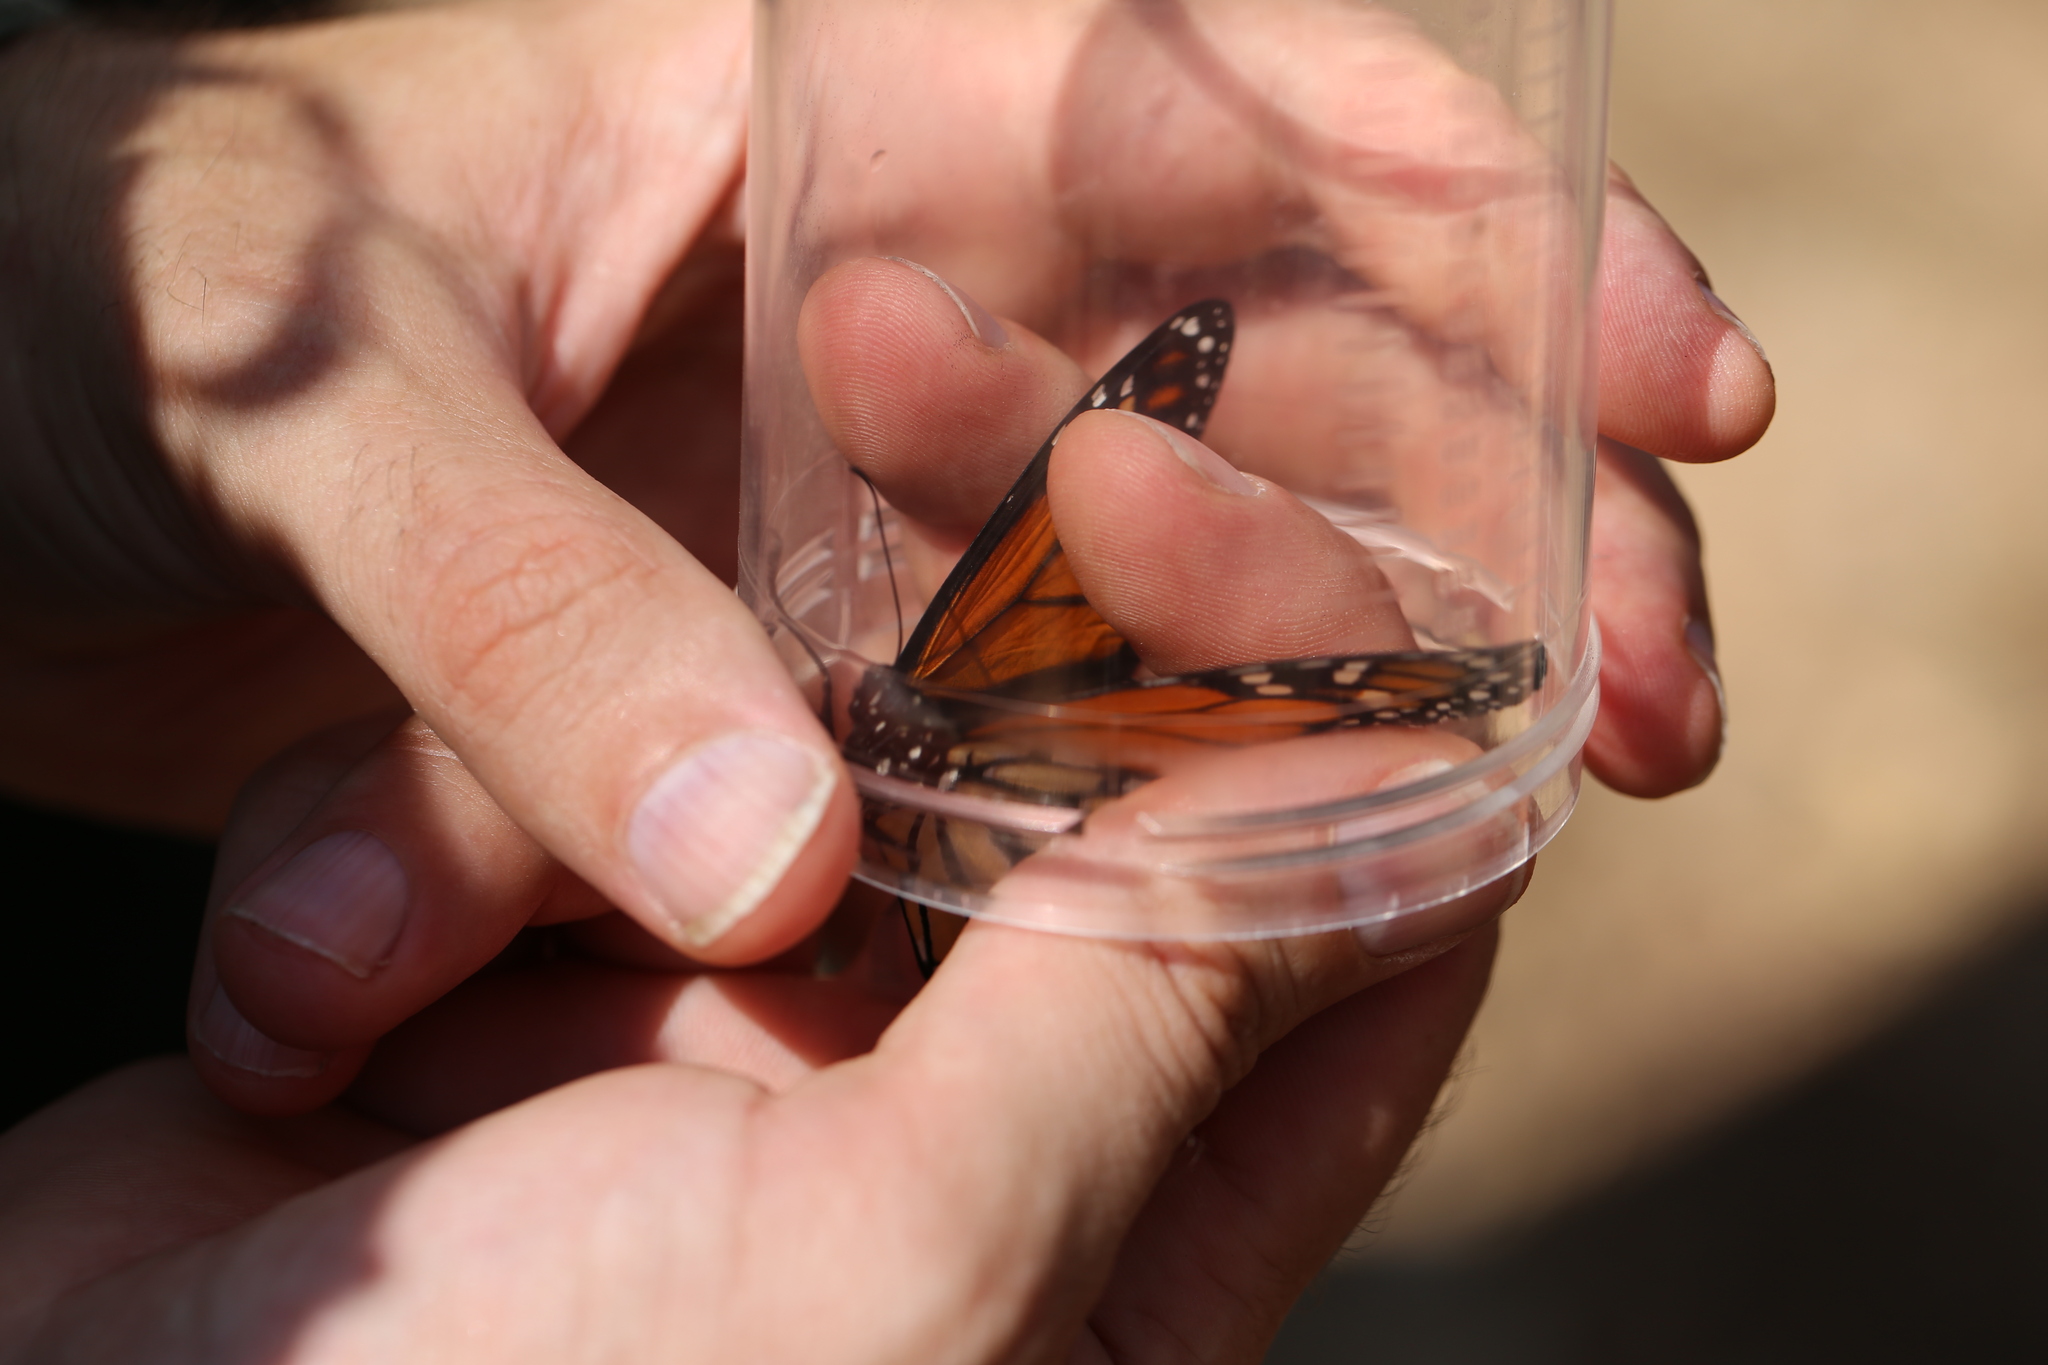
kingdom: Animalia
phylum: Arthropoda
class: Insecta
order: Lepidoptera
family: Nymphalidae
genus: Danaus
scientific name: Danaus plexippus
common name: Monarch
